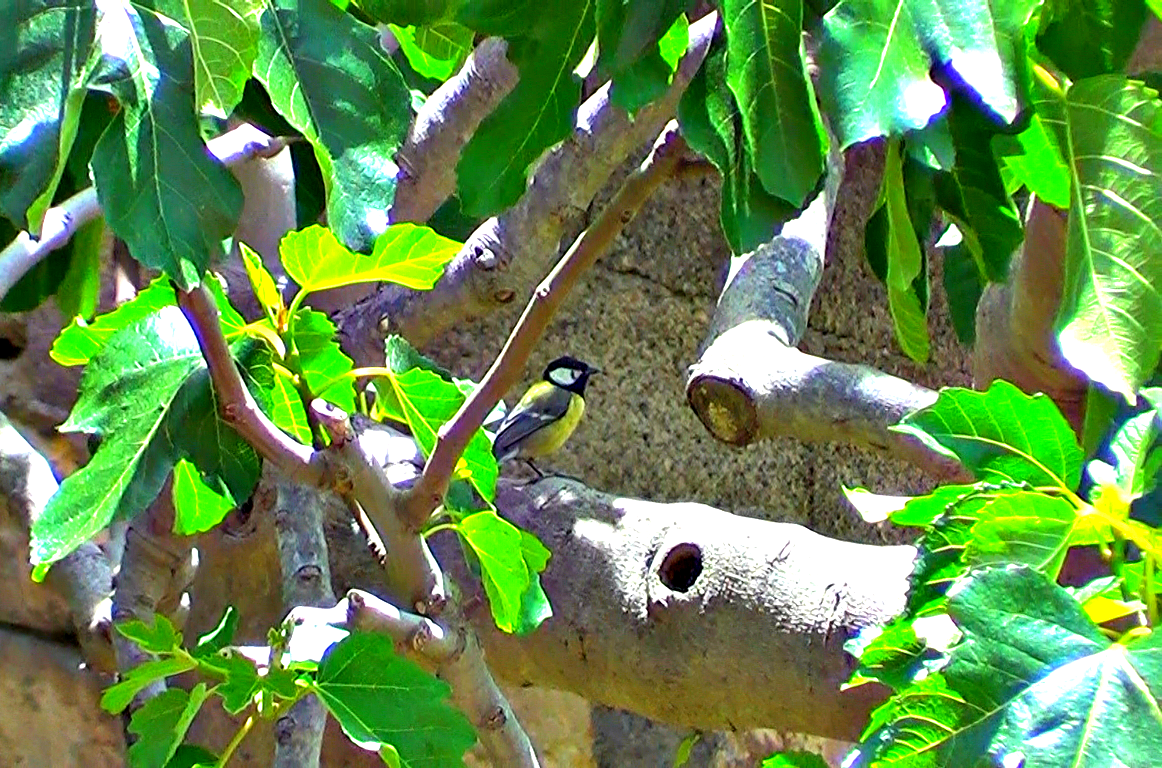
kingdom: Animalia
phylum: Chordata
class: Aves
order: Passeriformes
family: Paridae
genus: Parus
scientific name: Parus major
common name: Great tit
